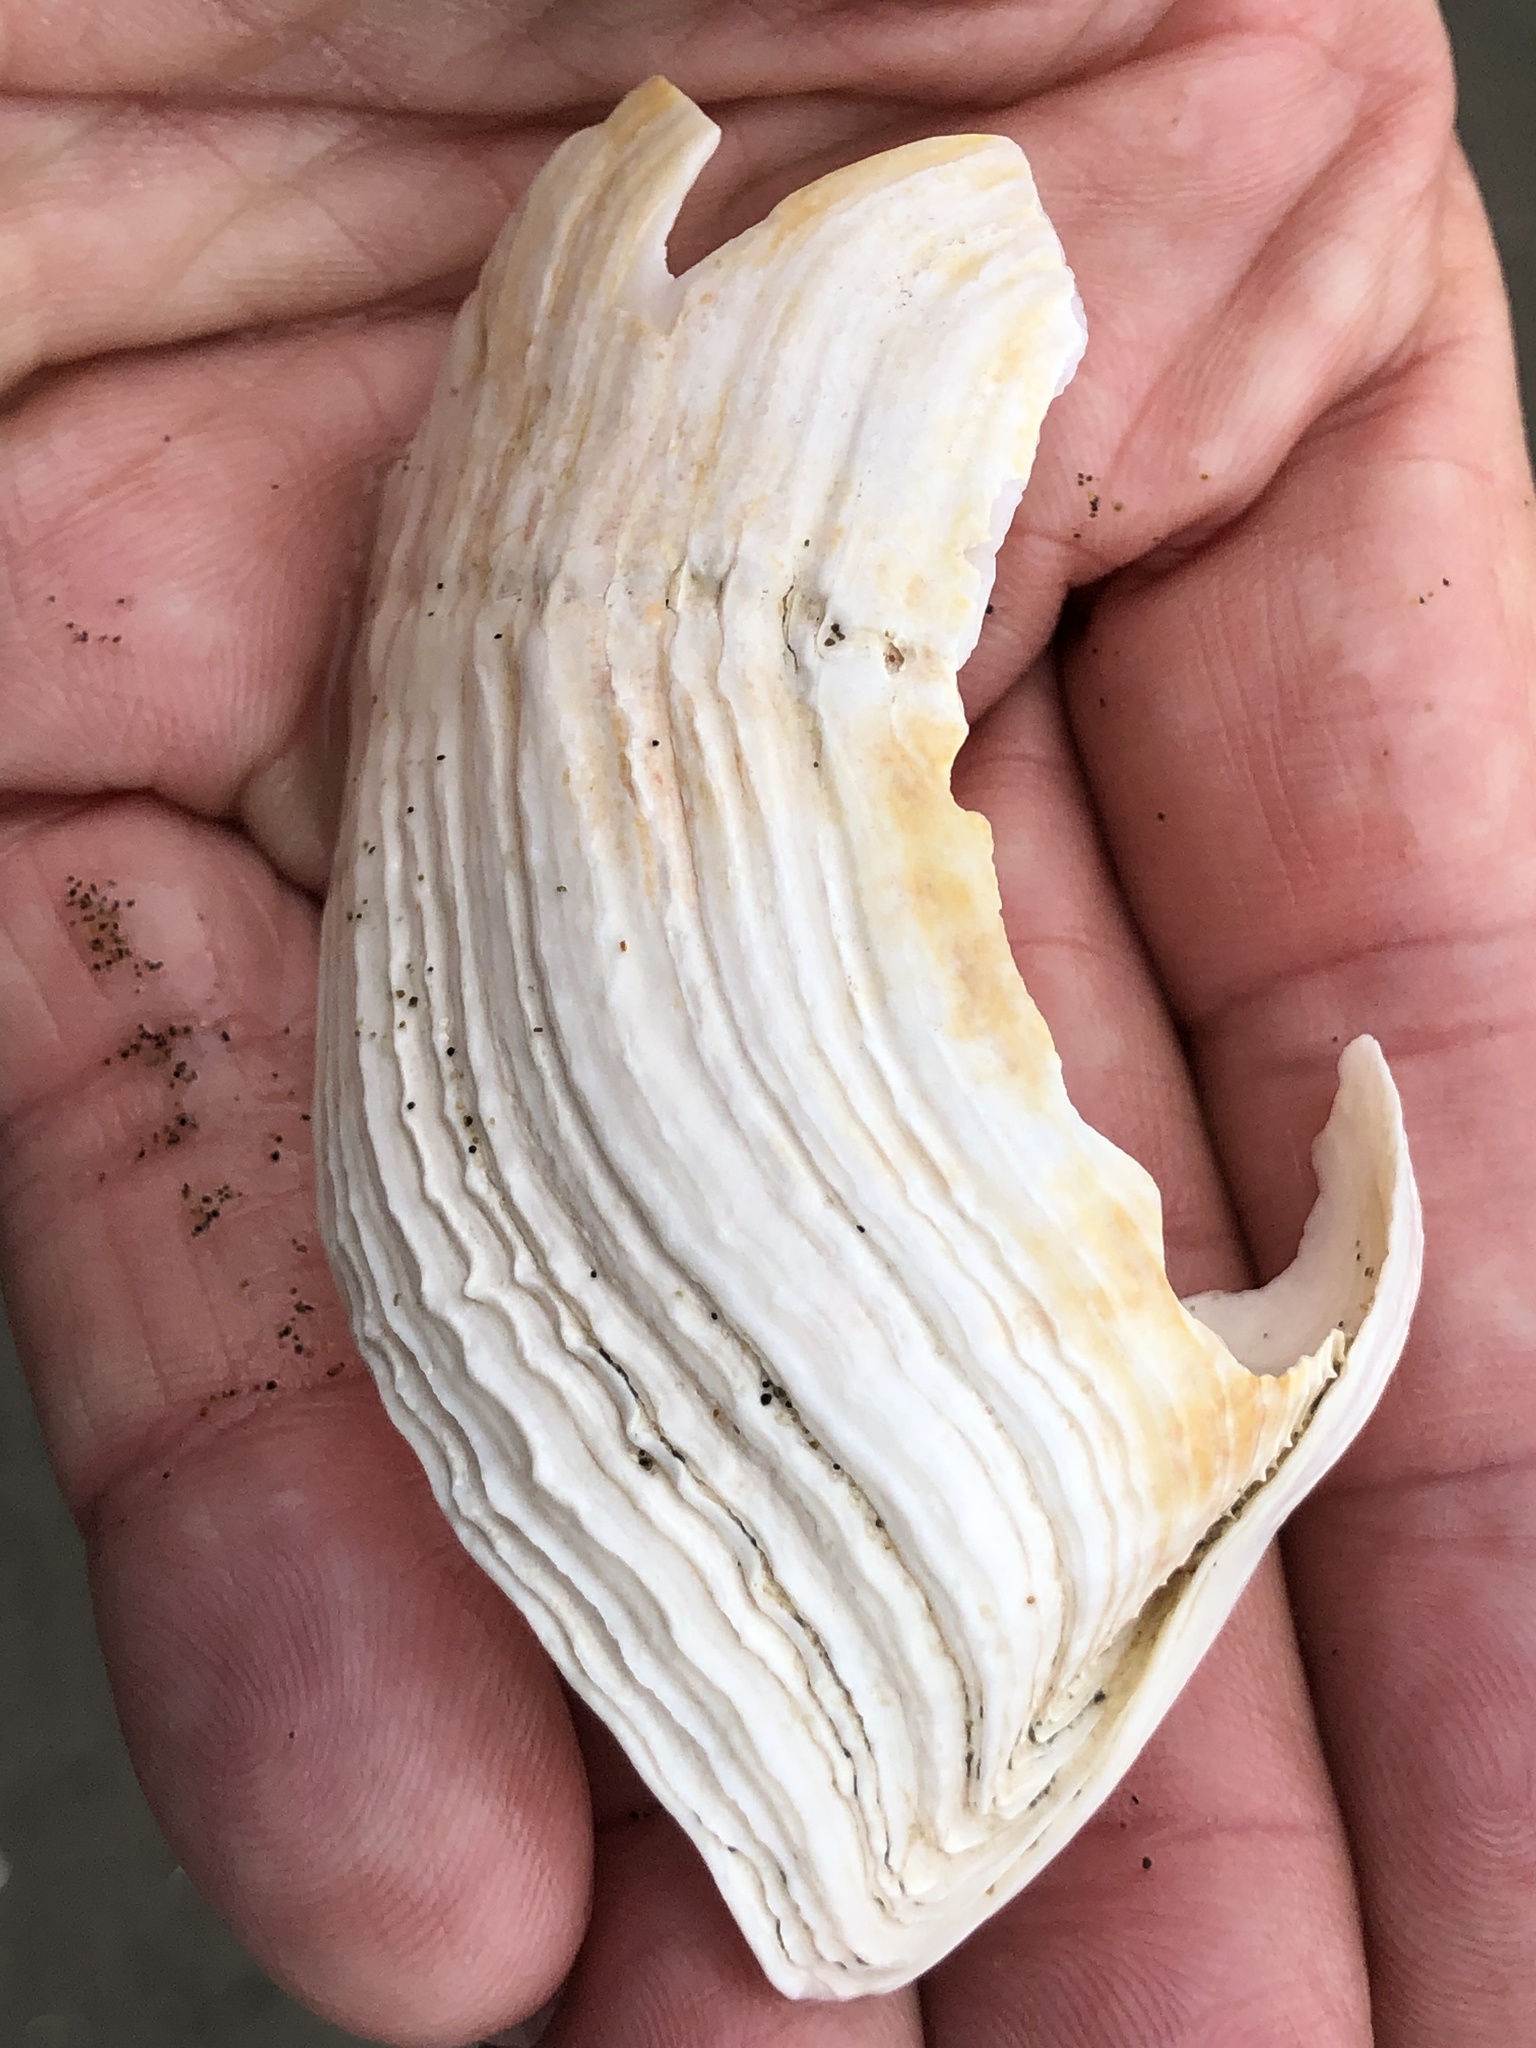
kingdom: Animalia
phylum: Mollusca
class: Bivalvia
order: Myida
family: Pholadidae
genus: Zirfaea
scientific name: Zirfaea pilsbryi
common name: Rough piddock
